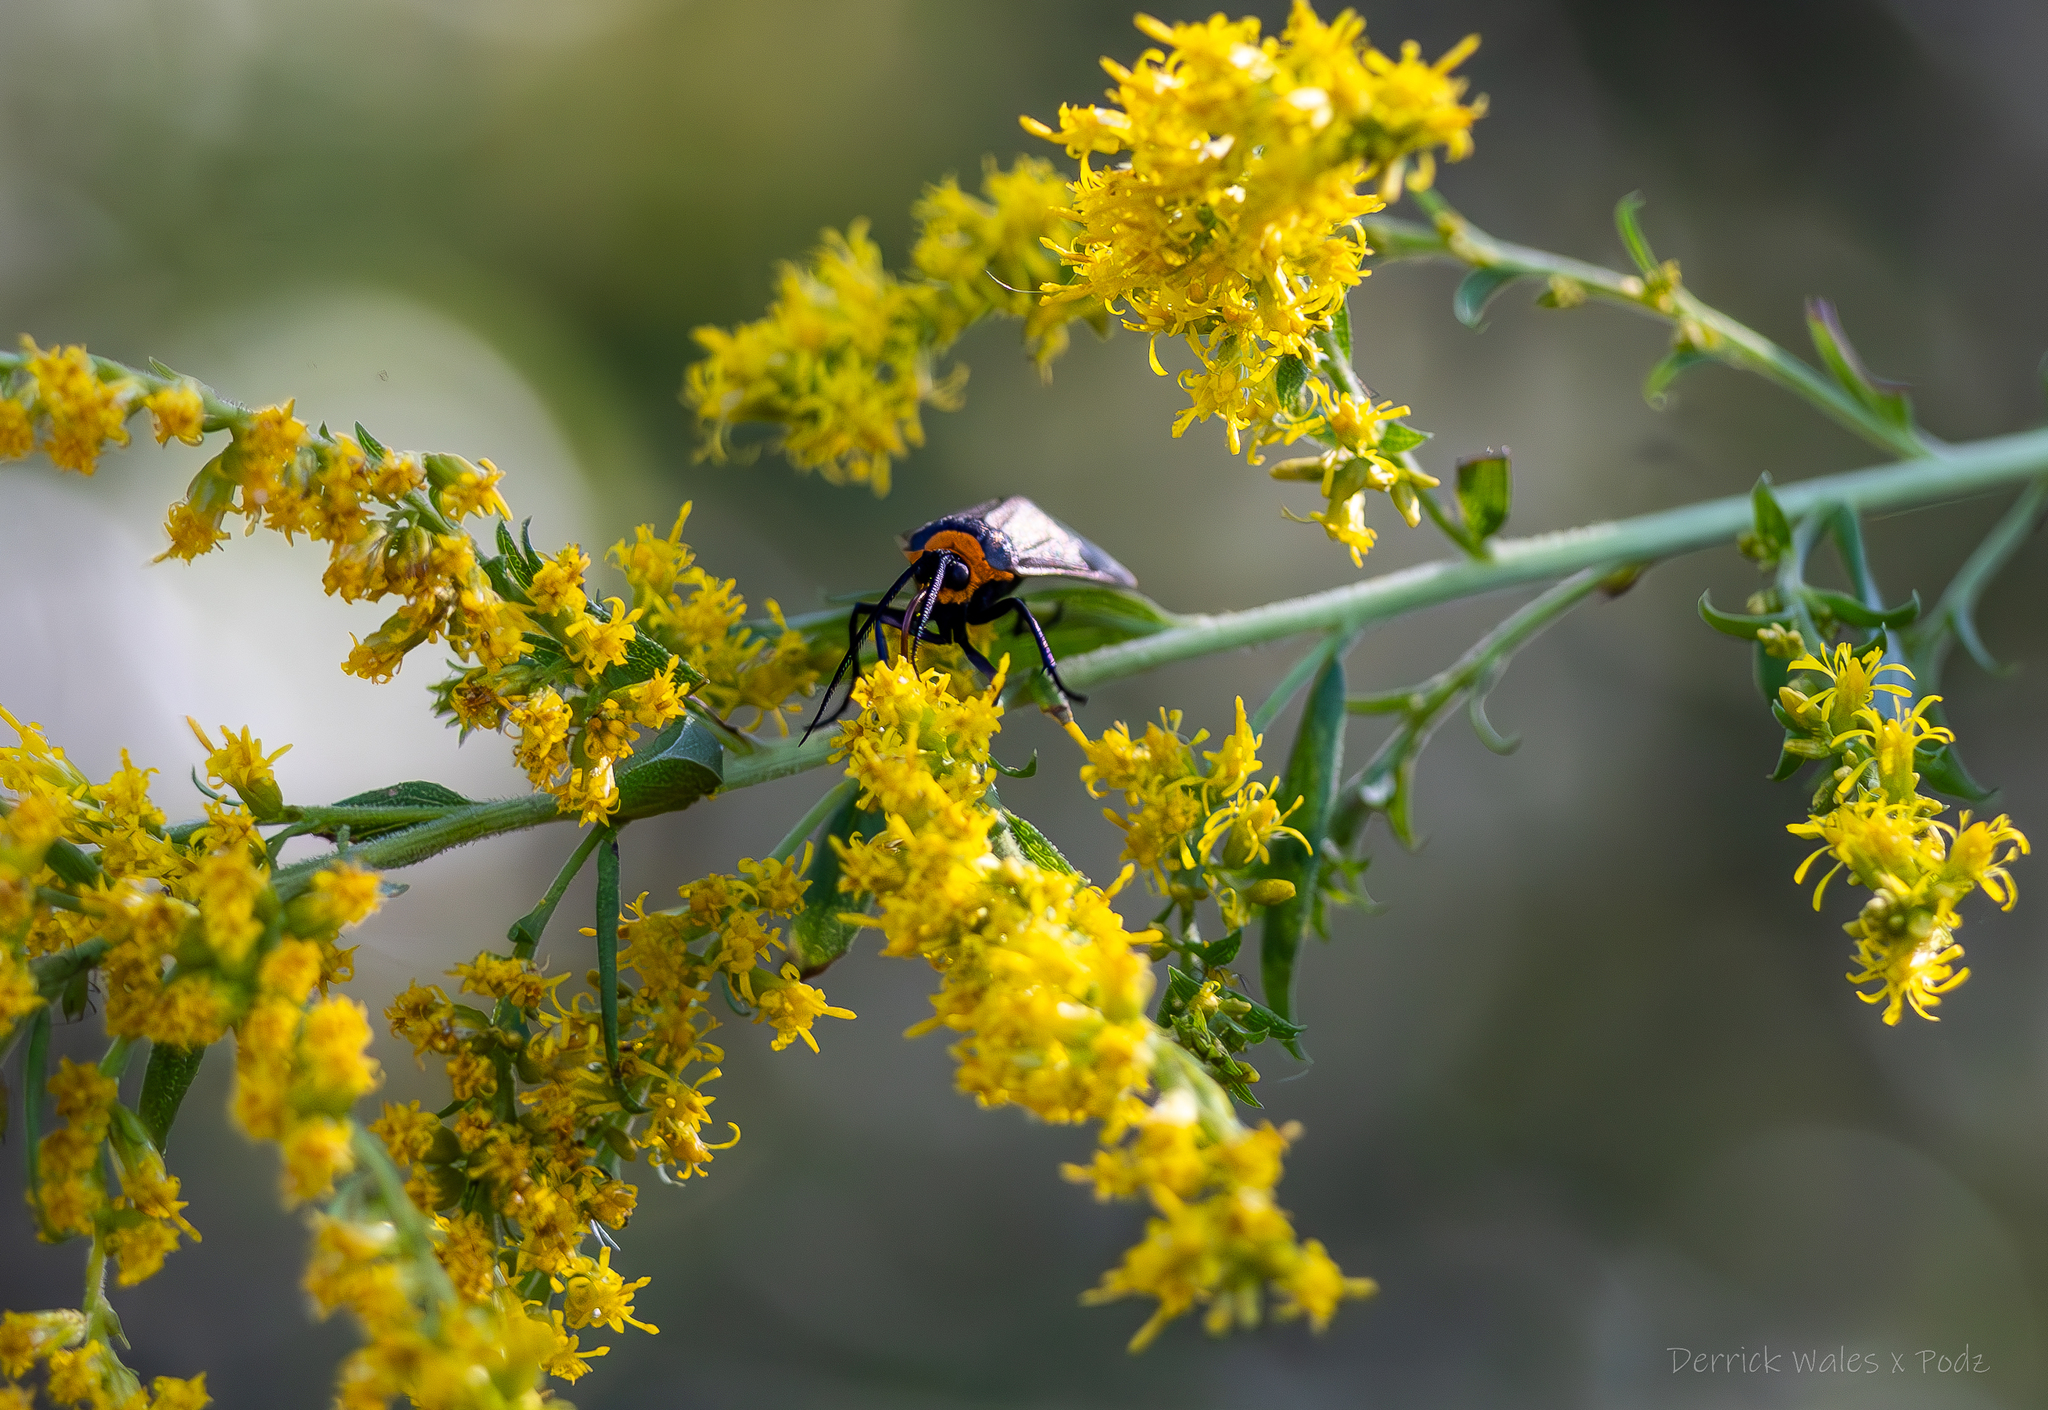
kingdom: Animalia
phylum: Arthropoda
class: Insecta
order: Lepidoptera
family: Erebidae
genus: Cisseps
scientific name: Cisseps fulvicollis
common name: Yellow-collared scape moth
